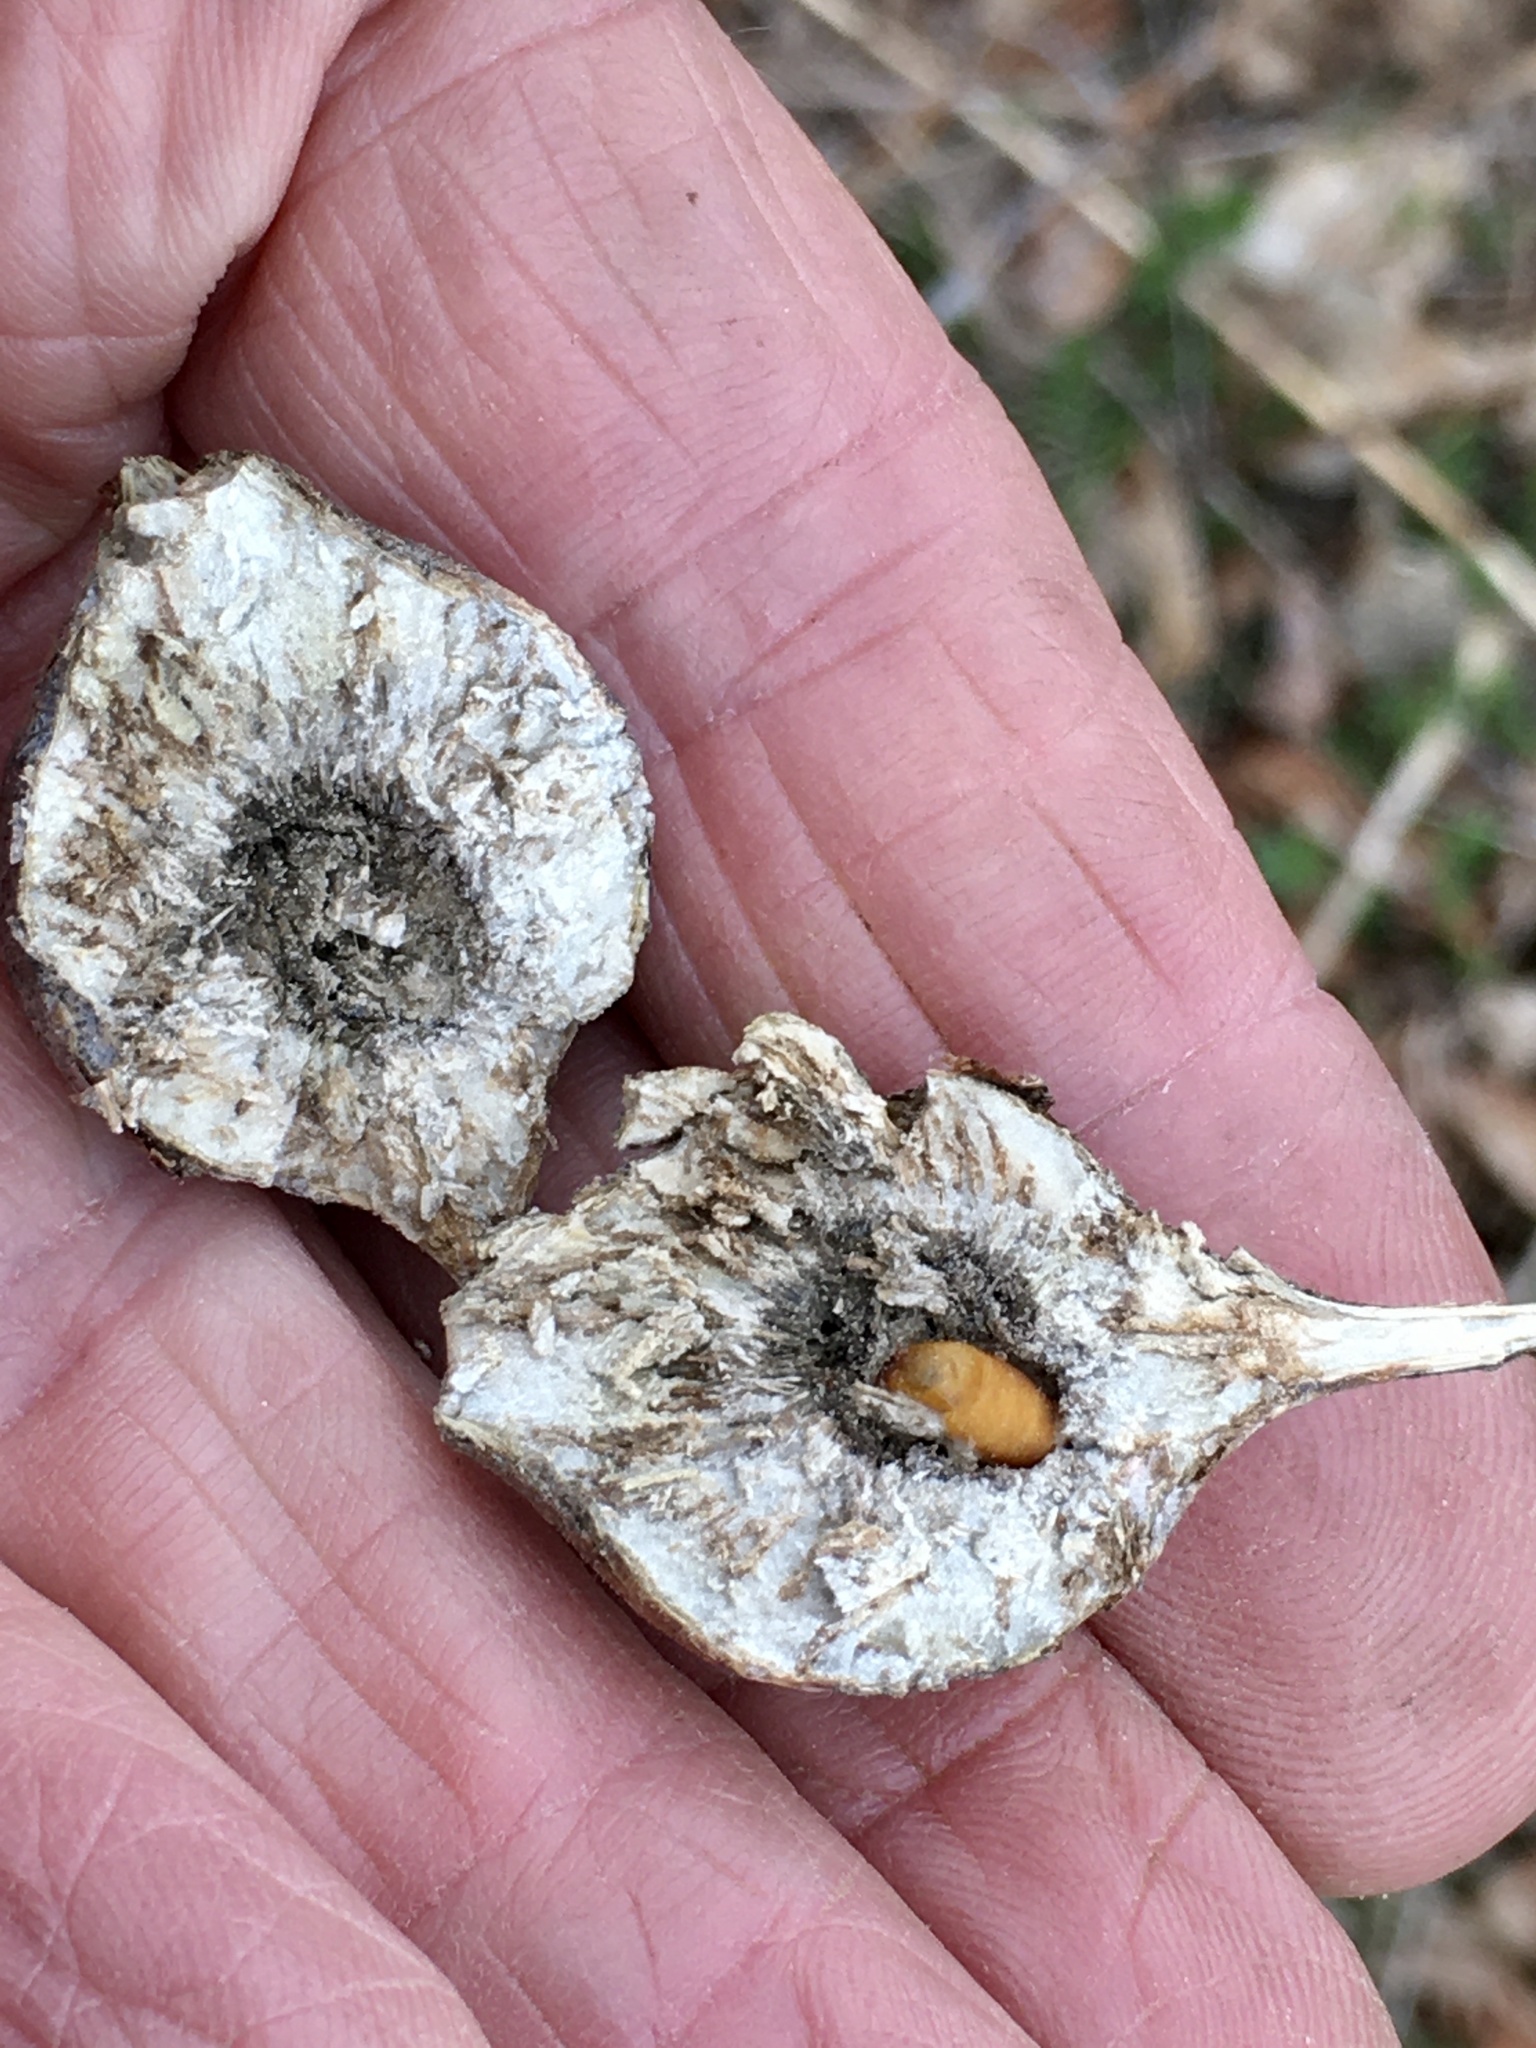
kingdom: Animalia
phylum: Arthropoda
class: Insecta
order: Diptera
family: Tephritidae
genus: Eurosta
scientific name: Eurosta solidaginis
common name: Goldenrod gall fly
